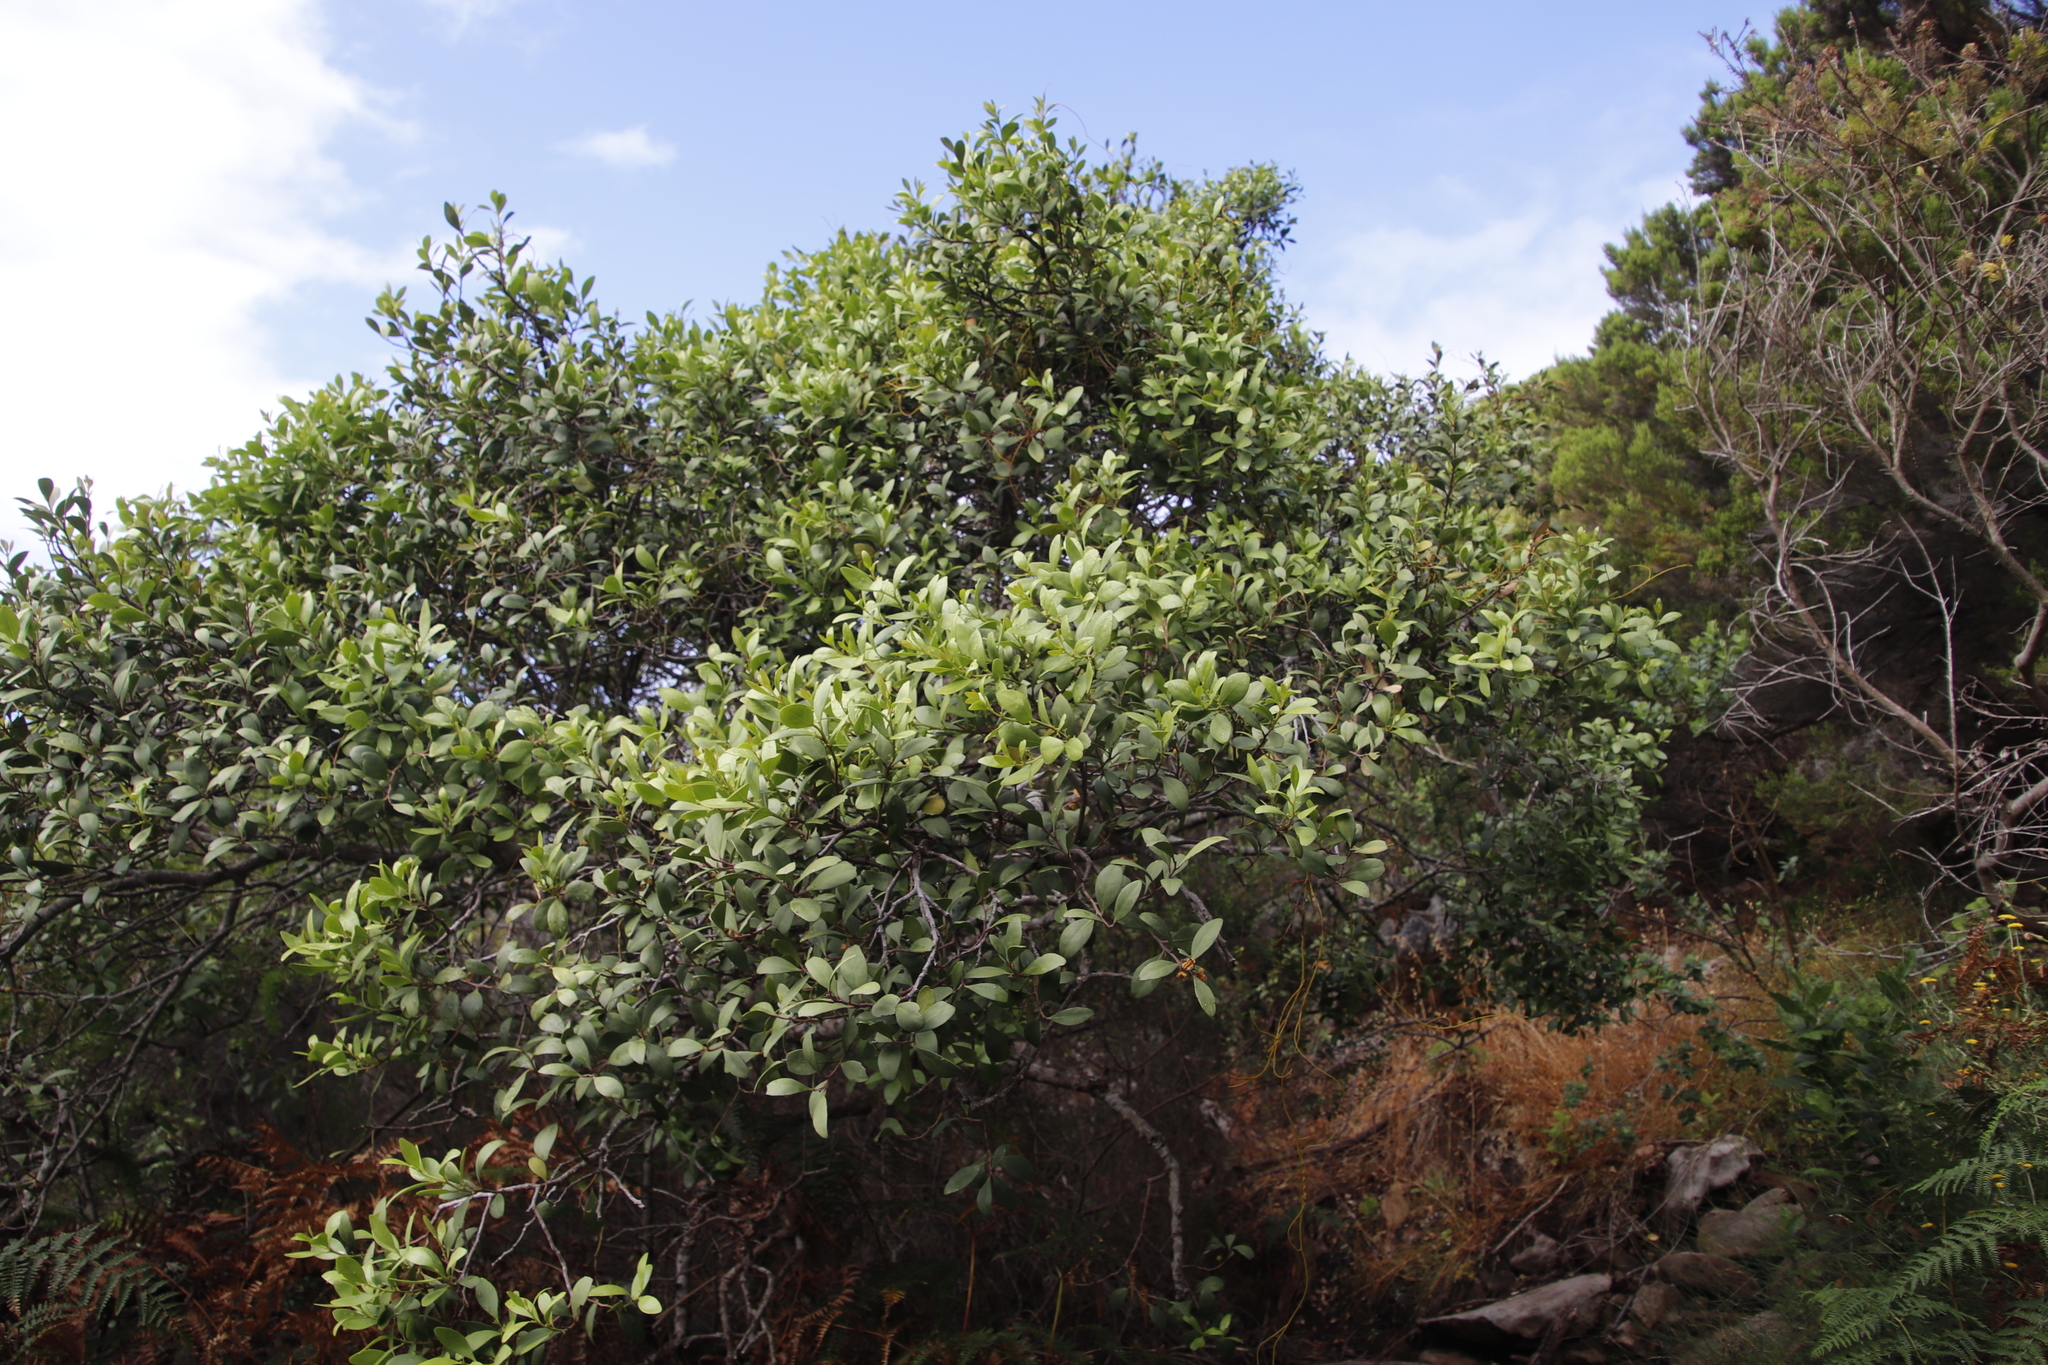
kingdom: Plantae
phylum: Tracheophyta
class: Magnoliopsida
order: Celastrales
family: Celastraceae
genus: Gymnosporia
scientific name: Gymnosporia laurina
